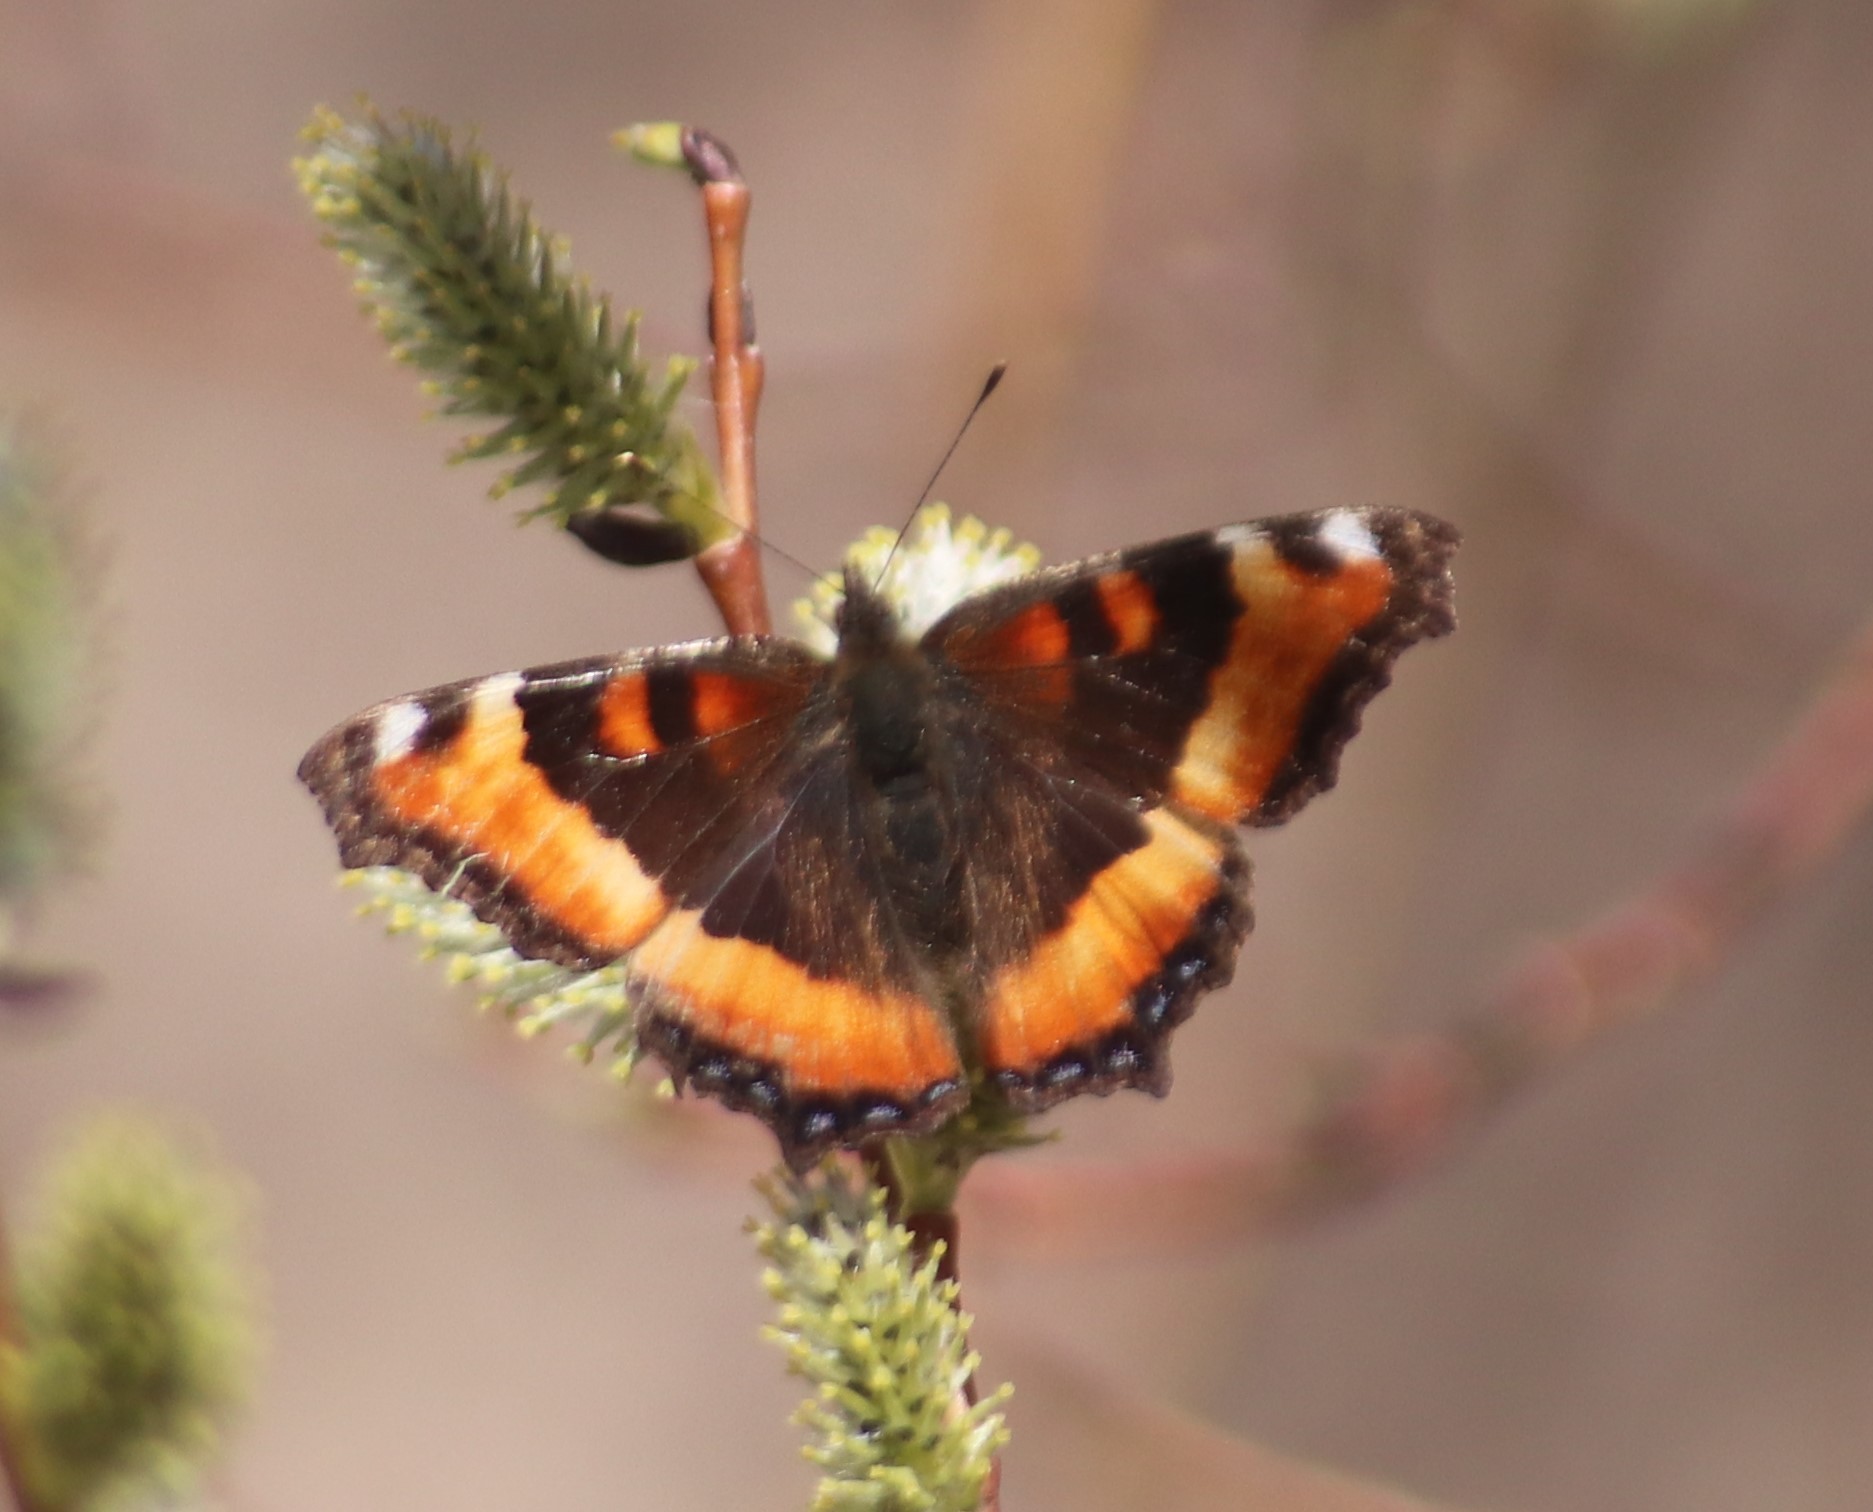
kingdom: Animalia
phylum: Arthropoda
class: Insecta
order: Lepidoptera
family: Nymphalidae
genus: Aglais
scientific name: Aglais milberti
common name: Milbert's tortoiseshell
